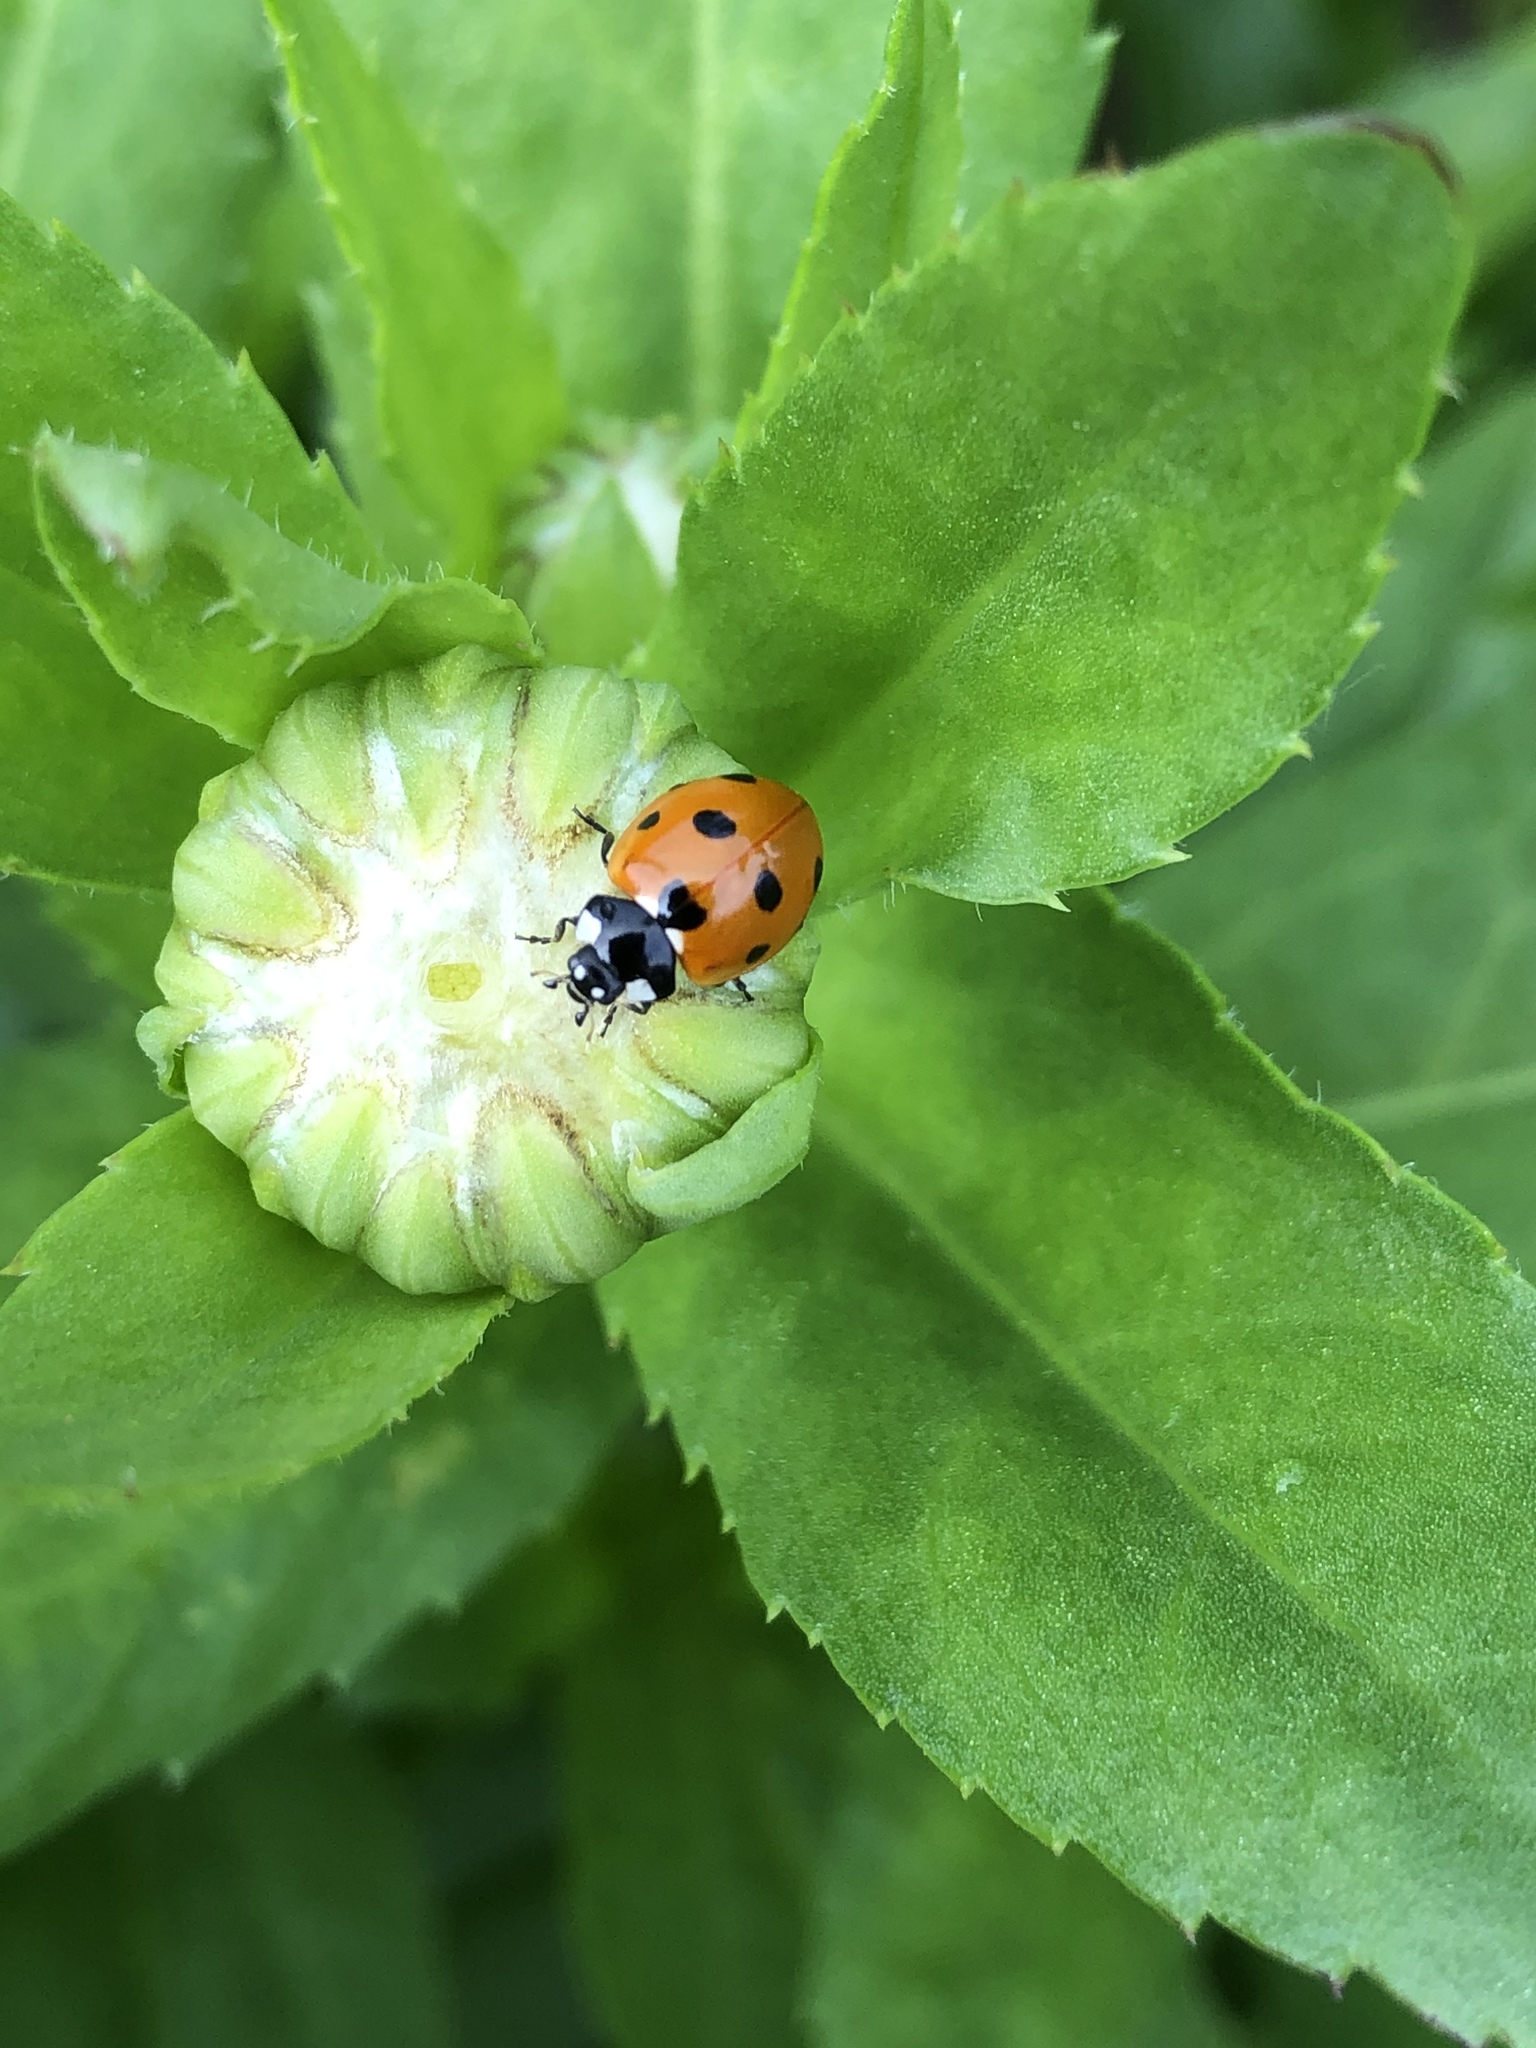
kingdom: Animalia
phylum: Arthropoda
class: Insecta
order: Coleoptera
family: Coccinellidae
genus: Coccinella
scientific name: Coccinella septempunctata
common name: Sevenspotted lady beetle
